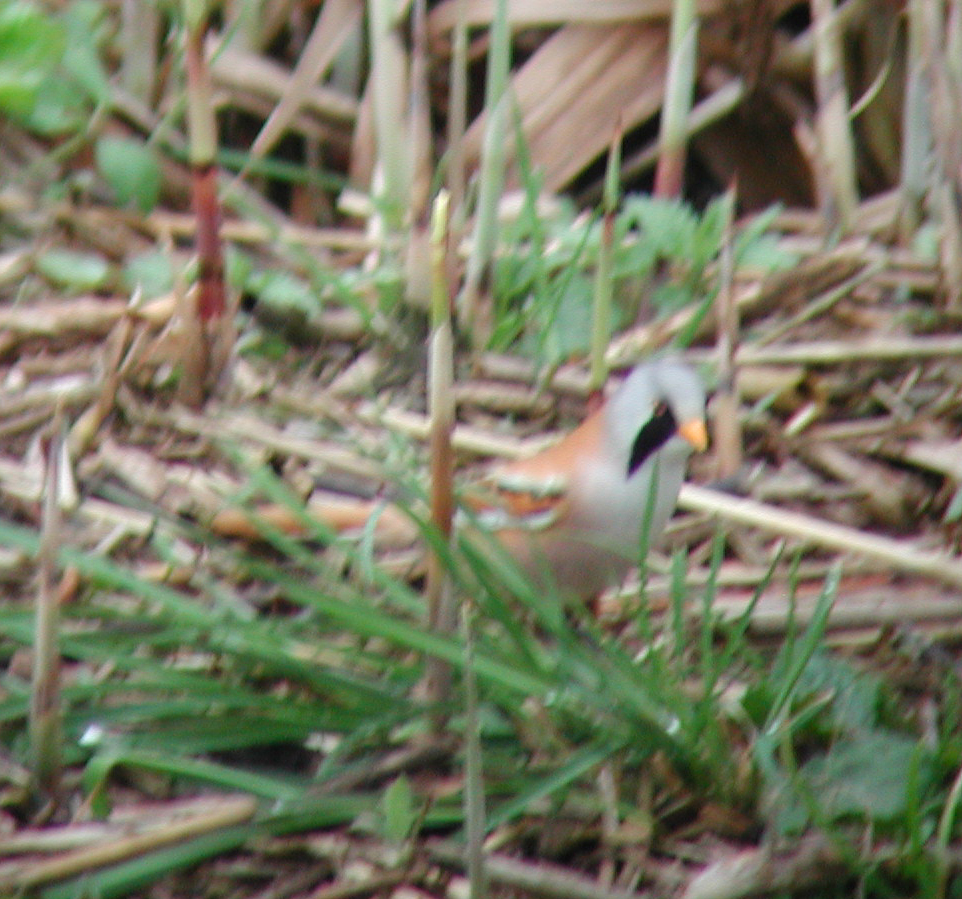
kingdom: Animalia
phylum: Chordata
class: Aves
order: Passeriformes
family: Panuridae
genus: Panurus
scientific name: Panurus biarmicus
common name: Bearded reedling
